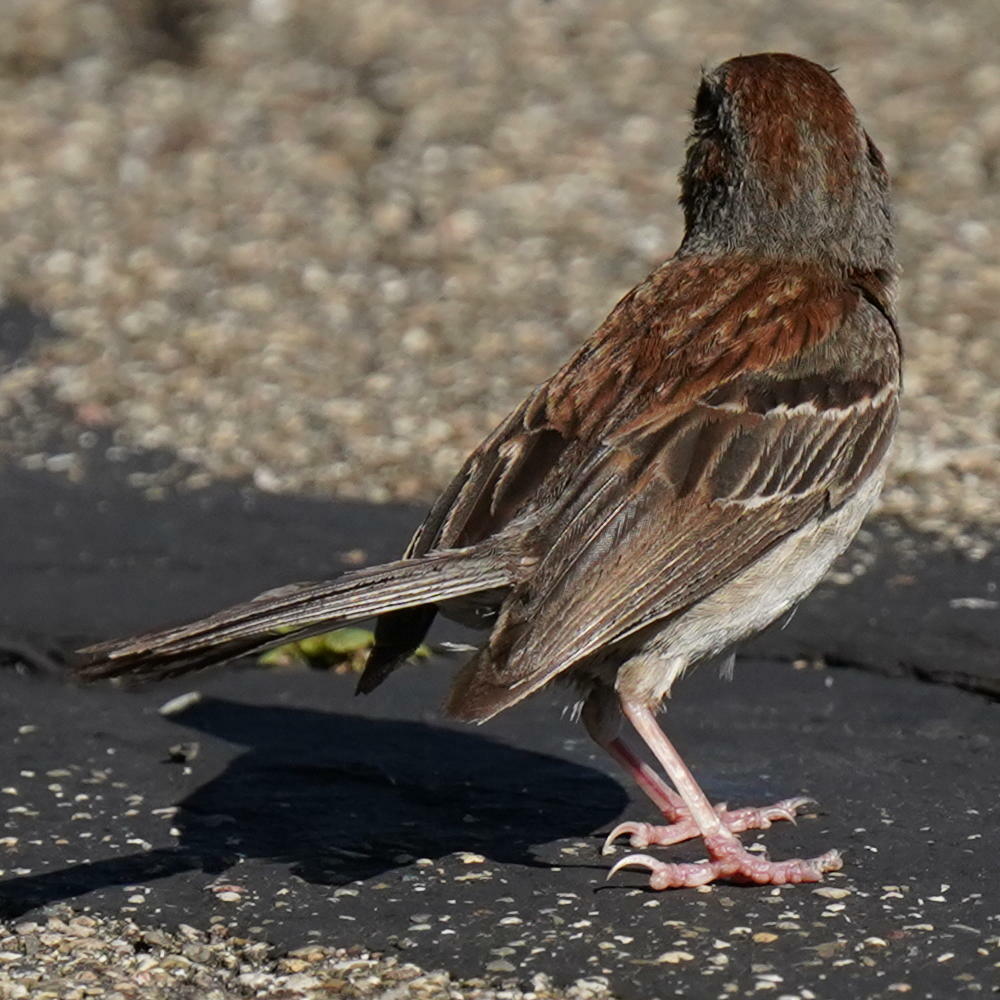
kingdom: Animalia
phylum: Chordata
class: Aves
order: Passeriformes
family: Passerellidae
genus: Spizella
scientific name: Spizella pusilla
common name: Field sparrow
